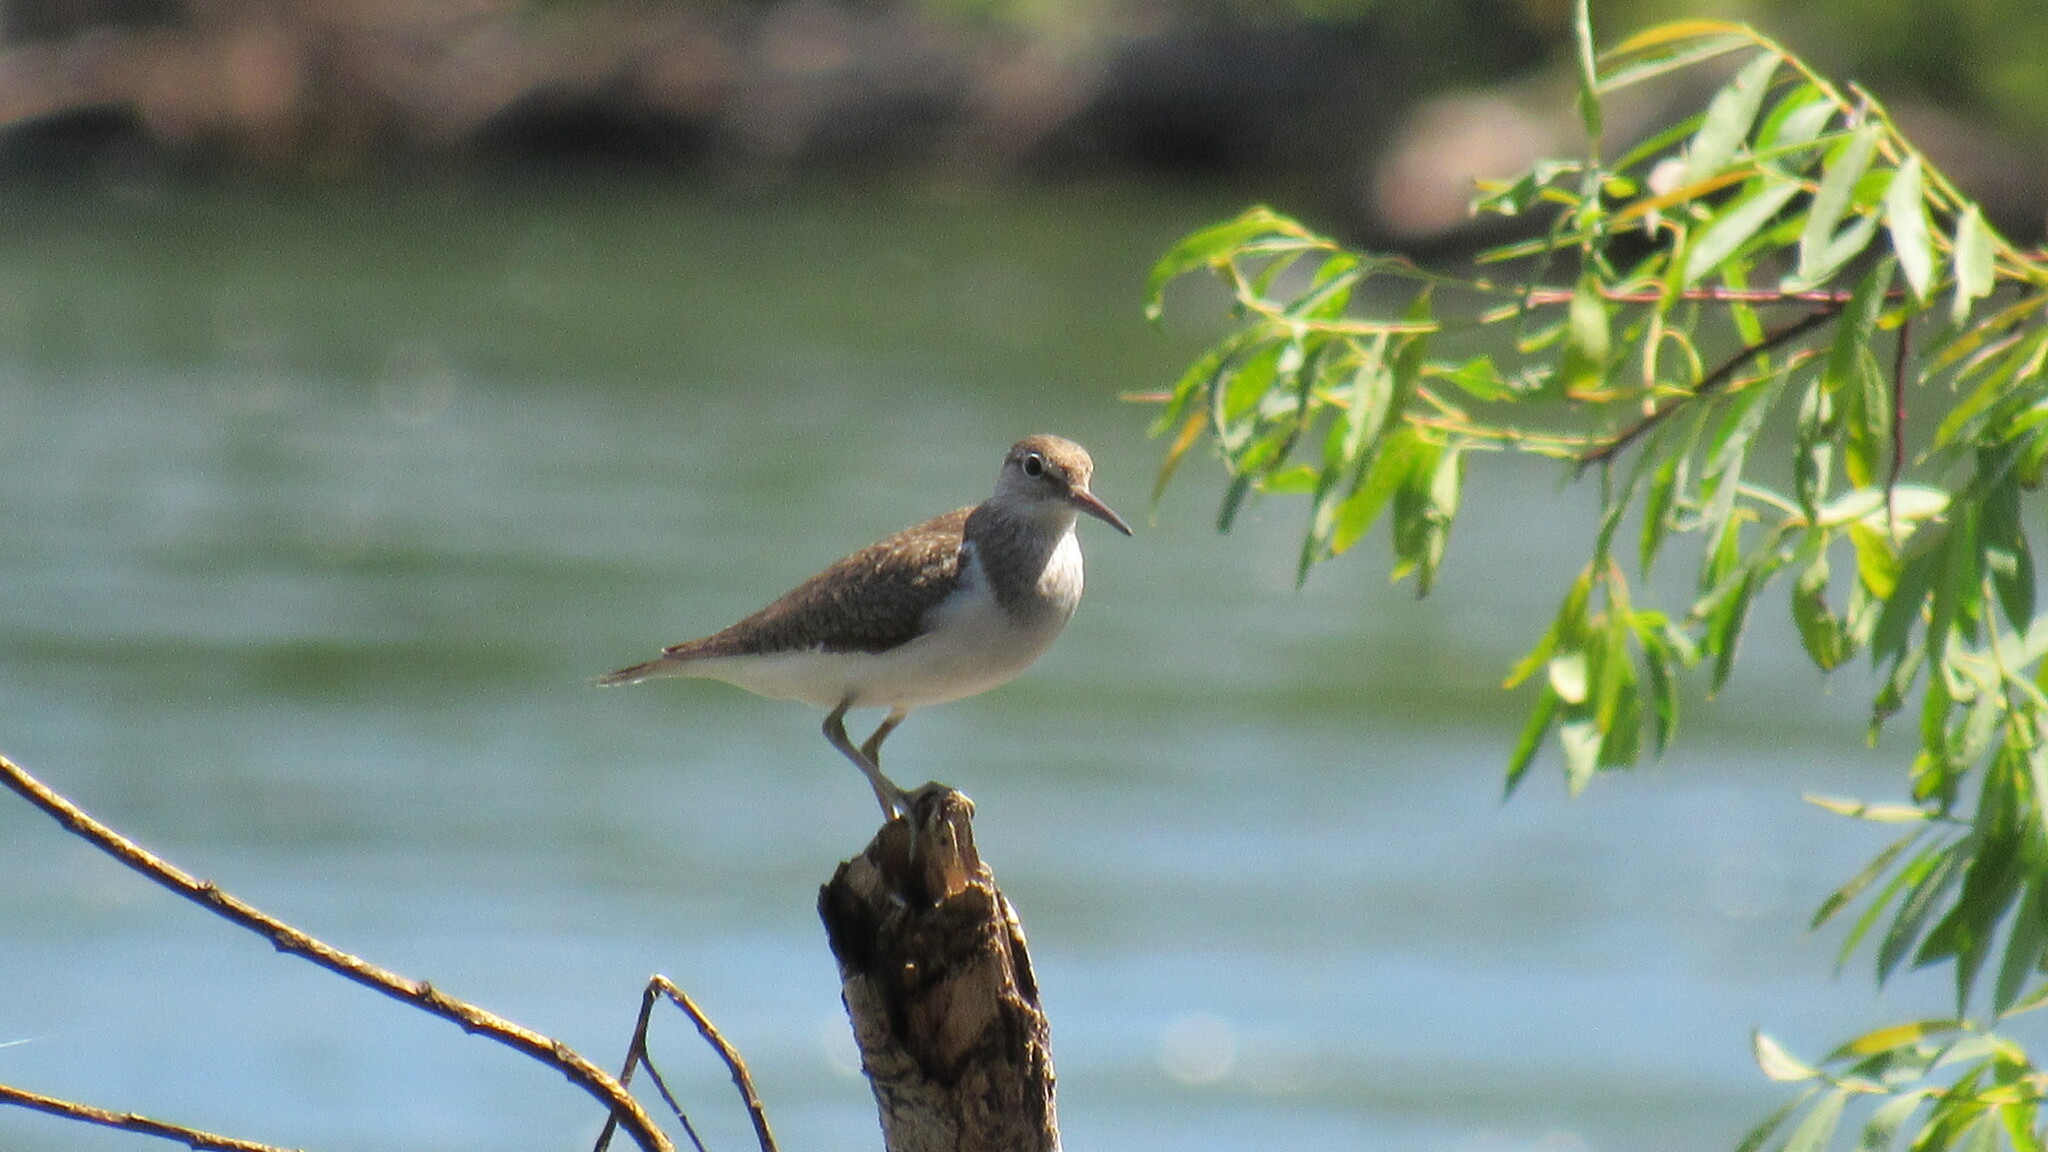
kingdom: Animalia
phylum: Chordata
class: Aves
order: Charadriiformes
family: Scolopacidae
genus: Actitis
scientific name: Actitis hypoleucos
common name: Common sandpiper
